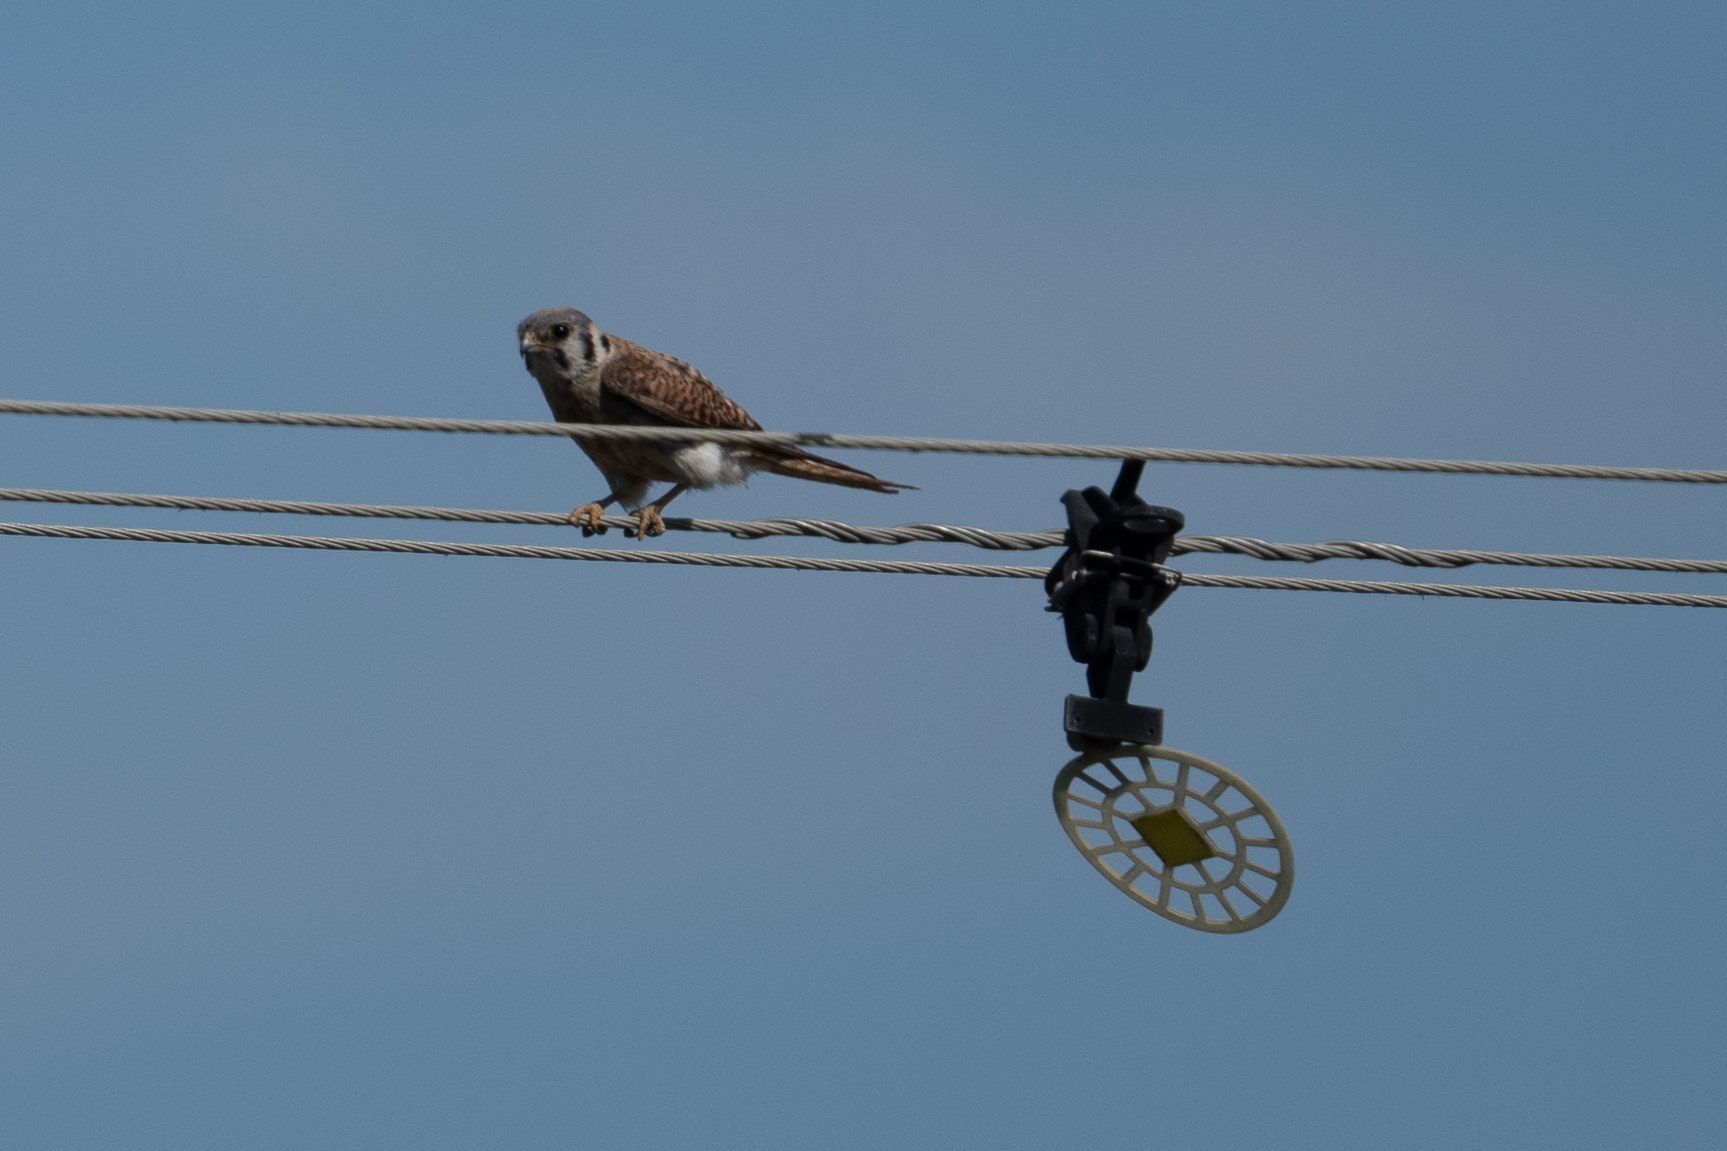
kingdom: Animalia
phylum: Chordata
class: Aves
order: Falconiformes
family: Falconidae
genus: Falco
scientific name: Falco sparverius
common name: American kestrel
